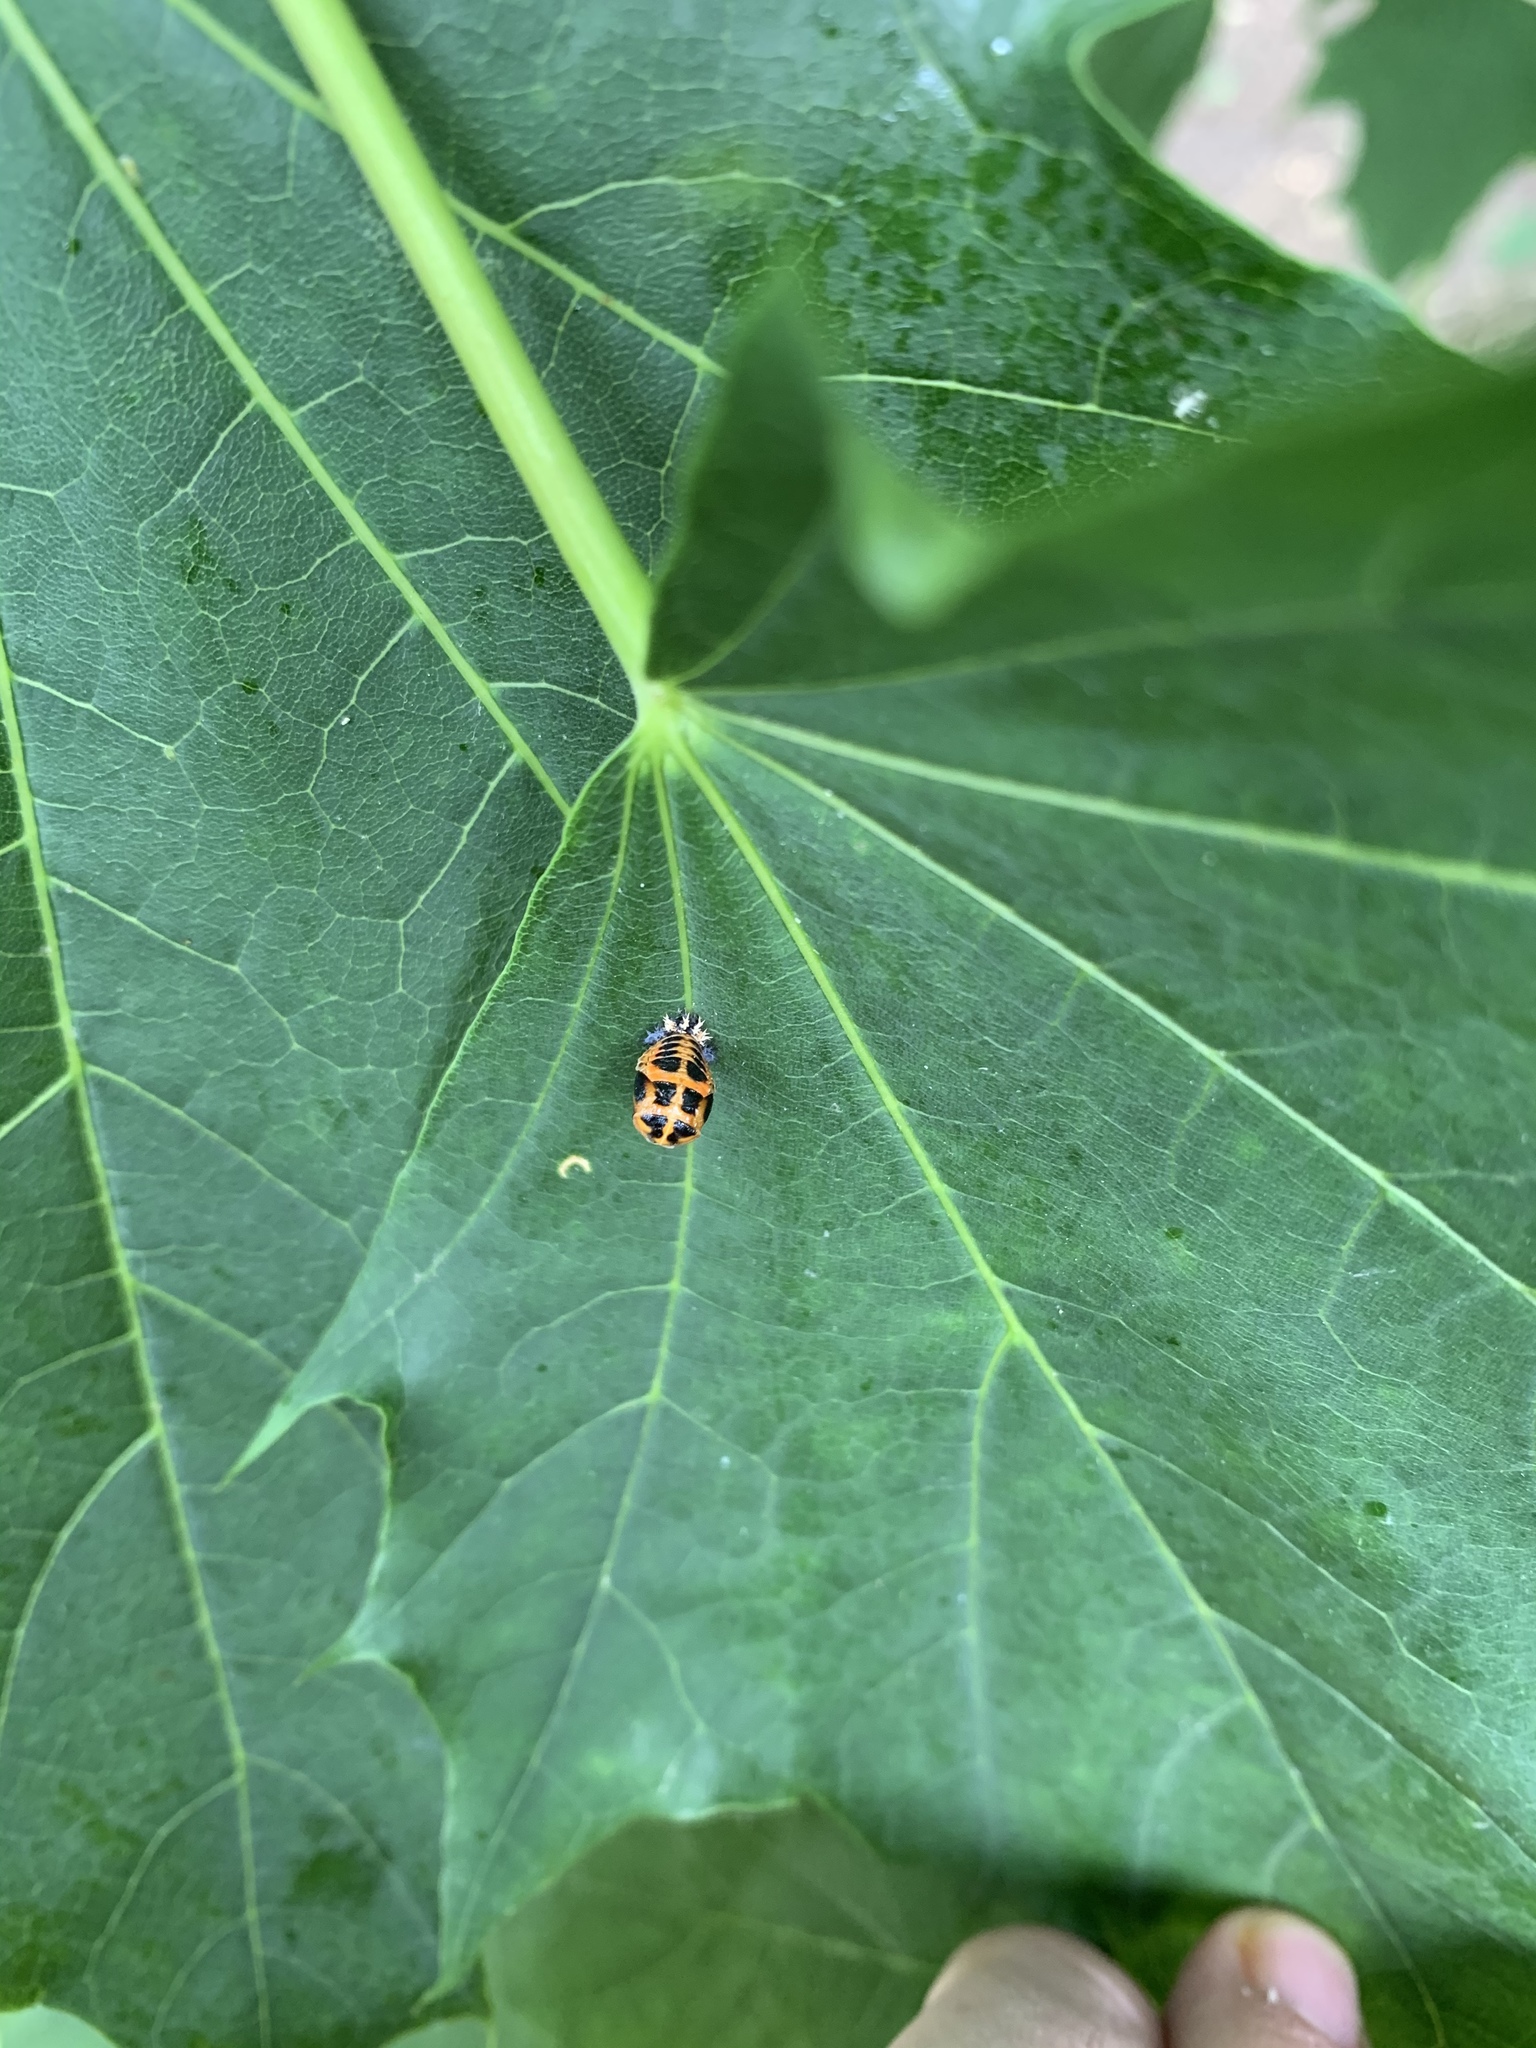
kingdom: Animalia
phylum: Arthropoda
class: Insecta
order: Coleoptera
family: Coccinellidae
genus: Harmonia
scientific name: Harmonia axyridis
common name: Harlequin ladybird
